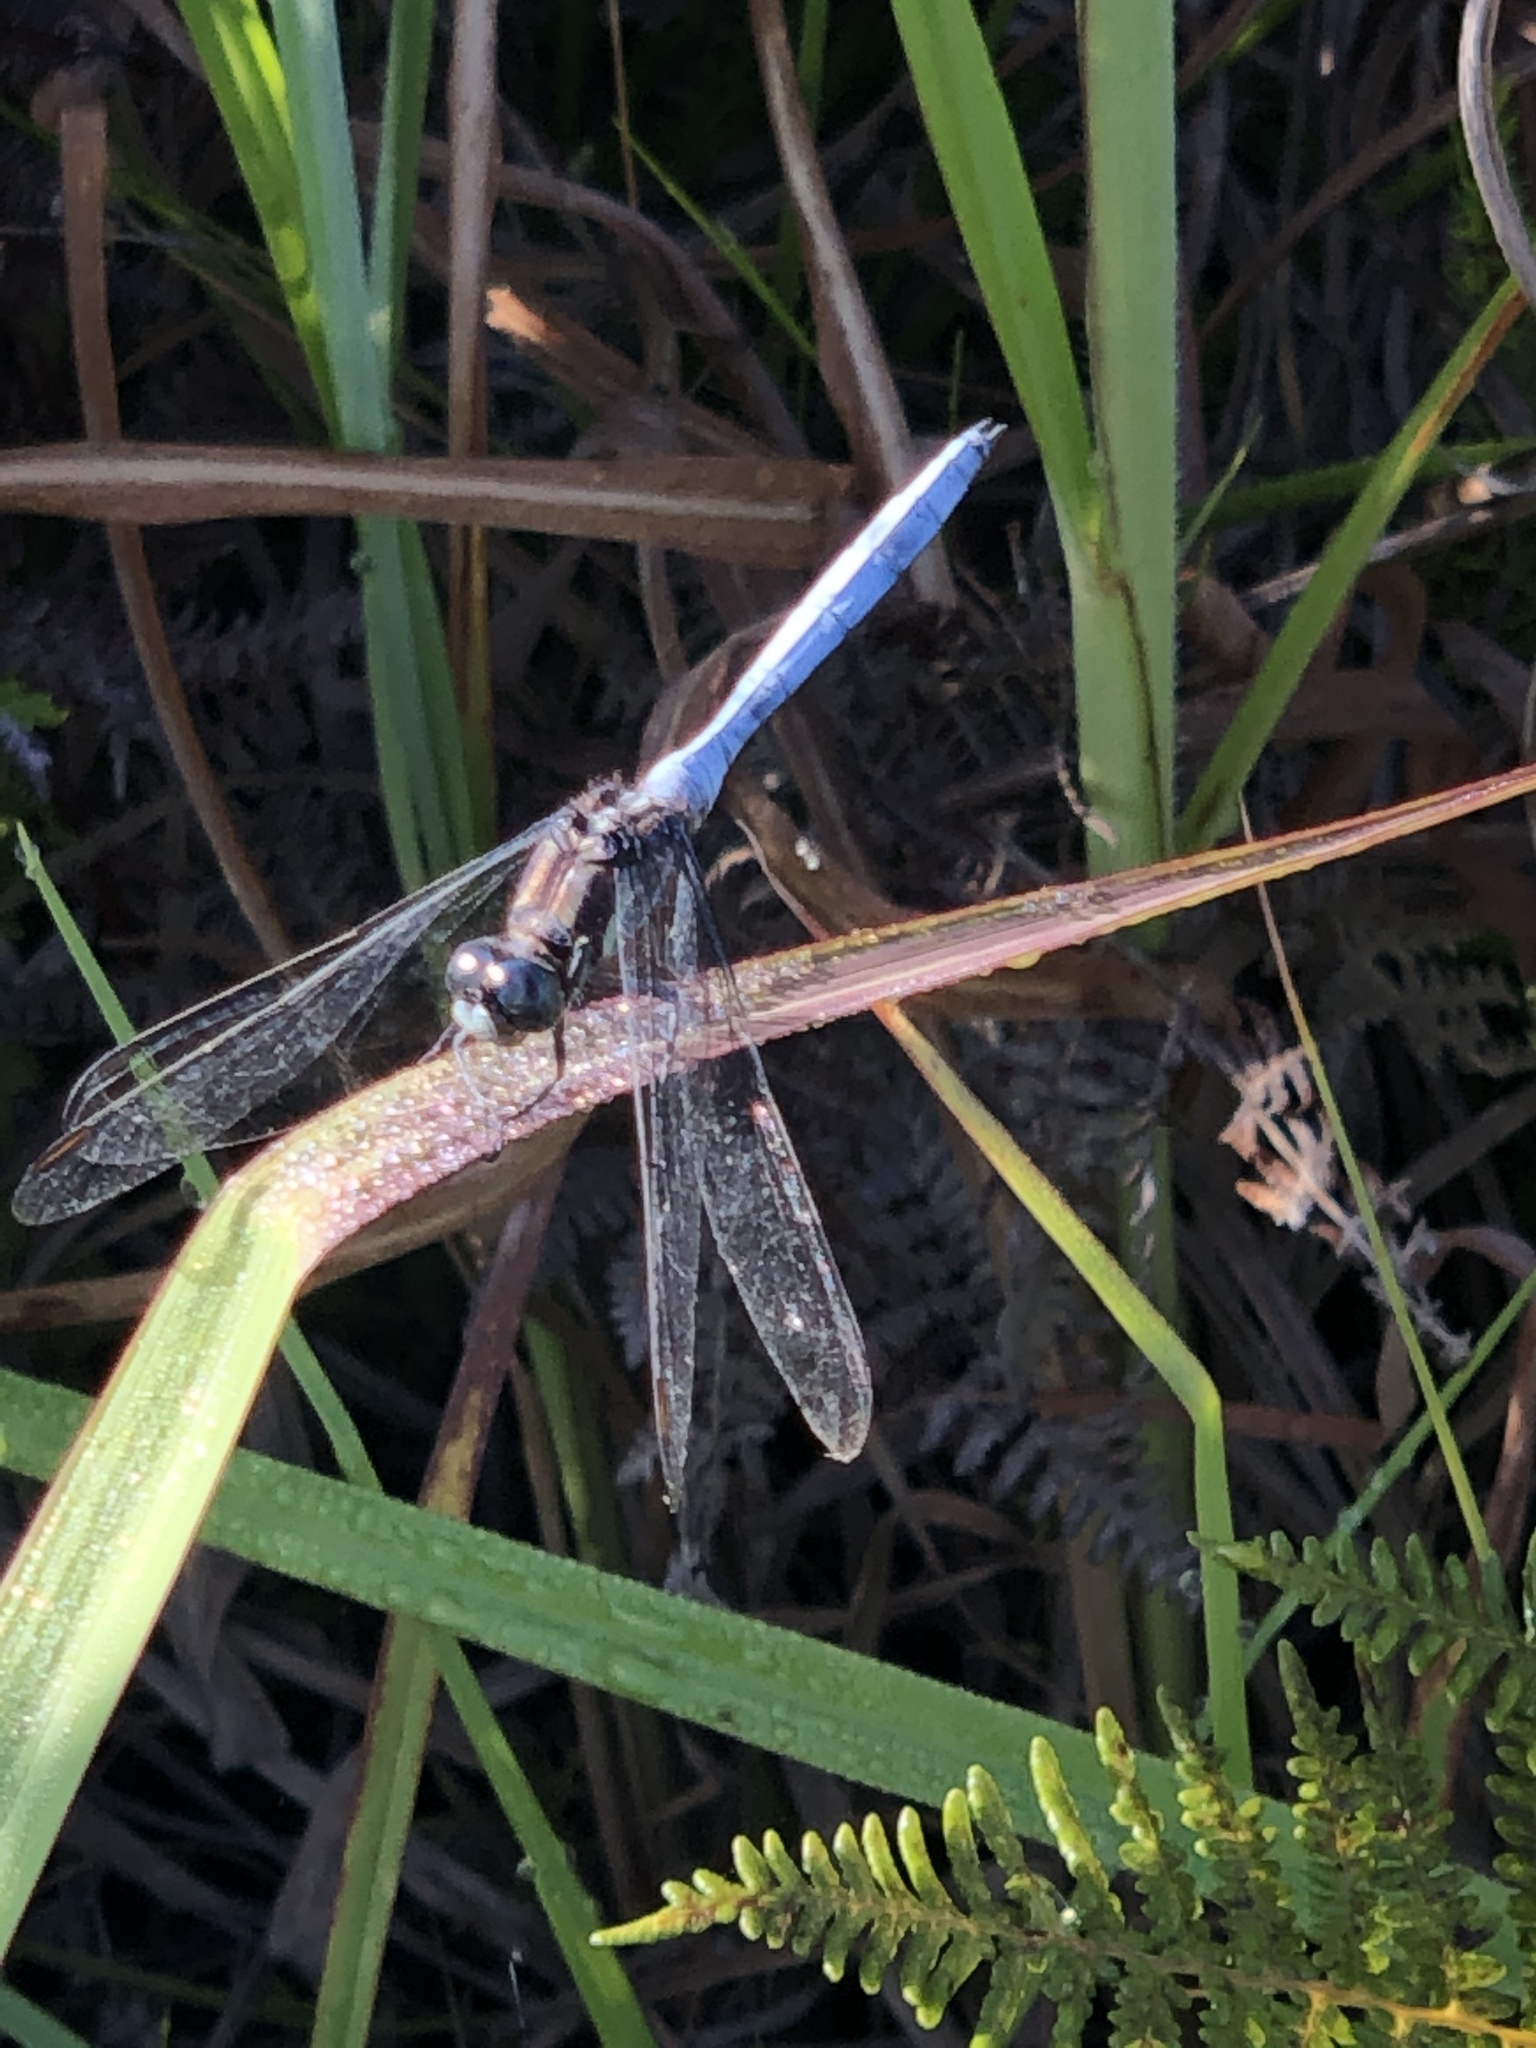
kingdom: Animalia
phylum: Arthropoda
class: Insecta
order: Odonata
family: Libellulidae
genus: Orthetrum
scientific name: Orthetrum julia
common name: Julia skimmer
